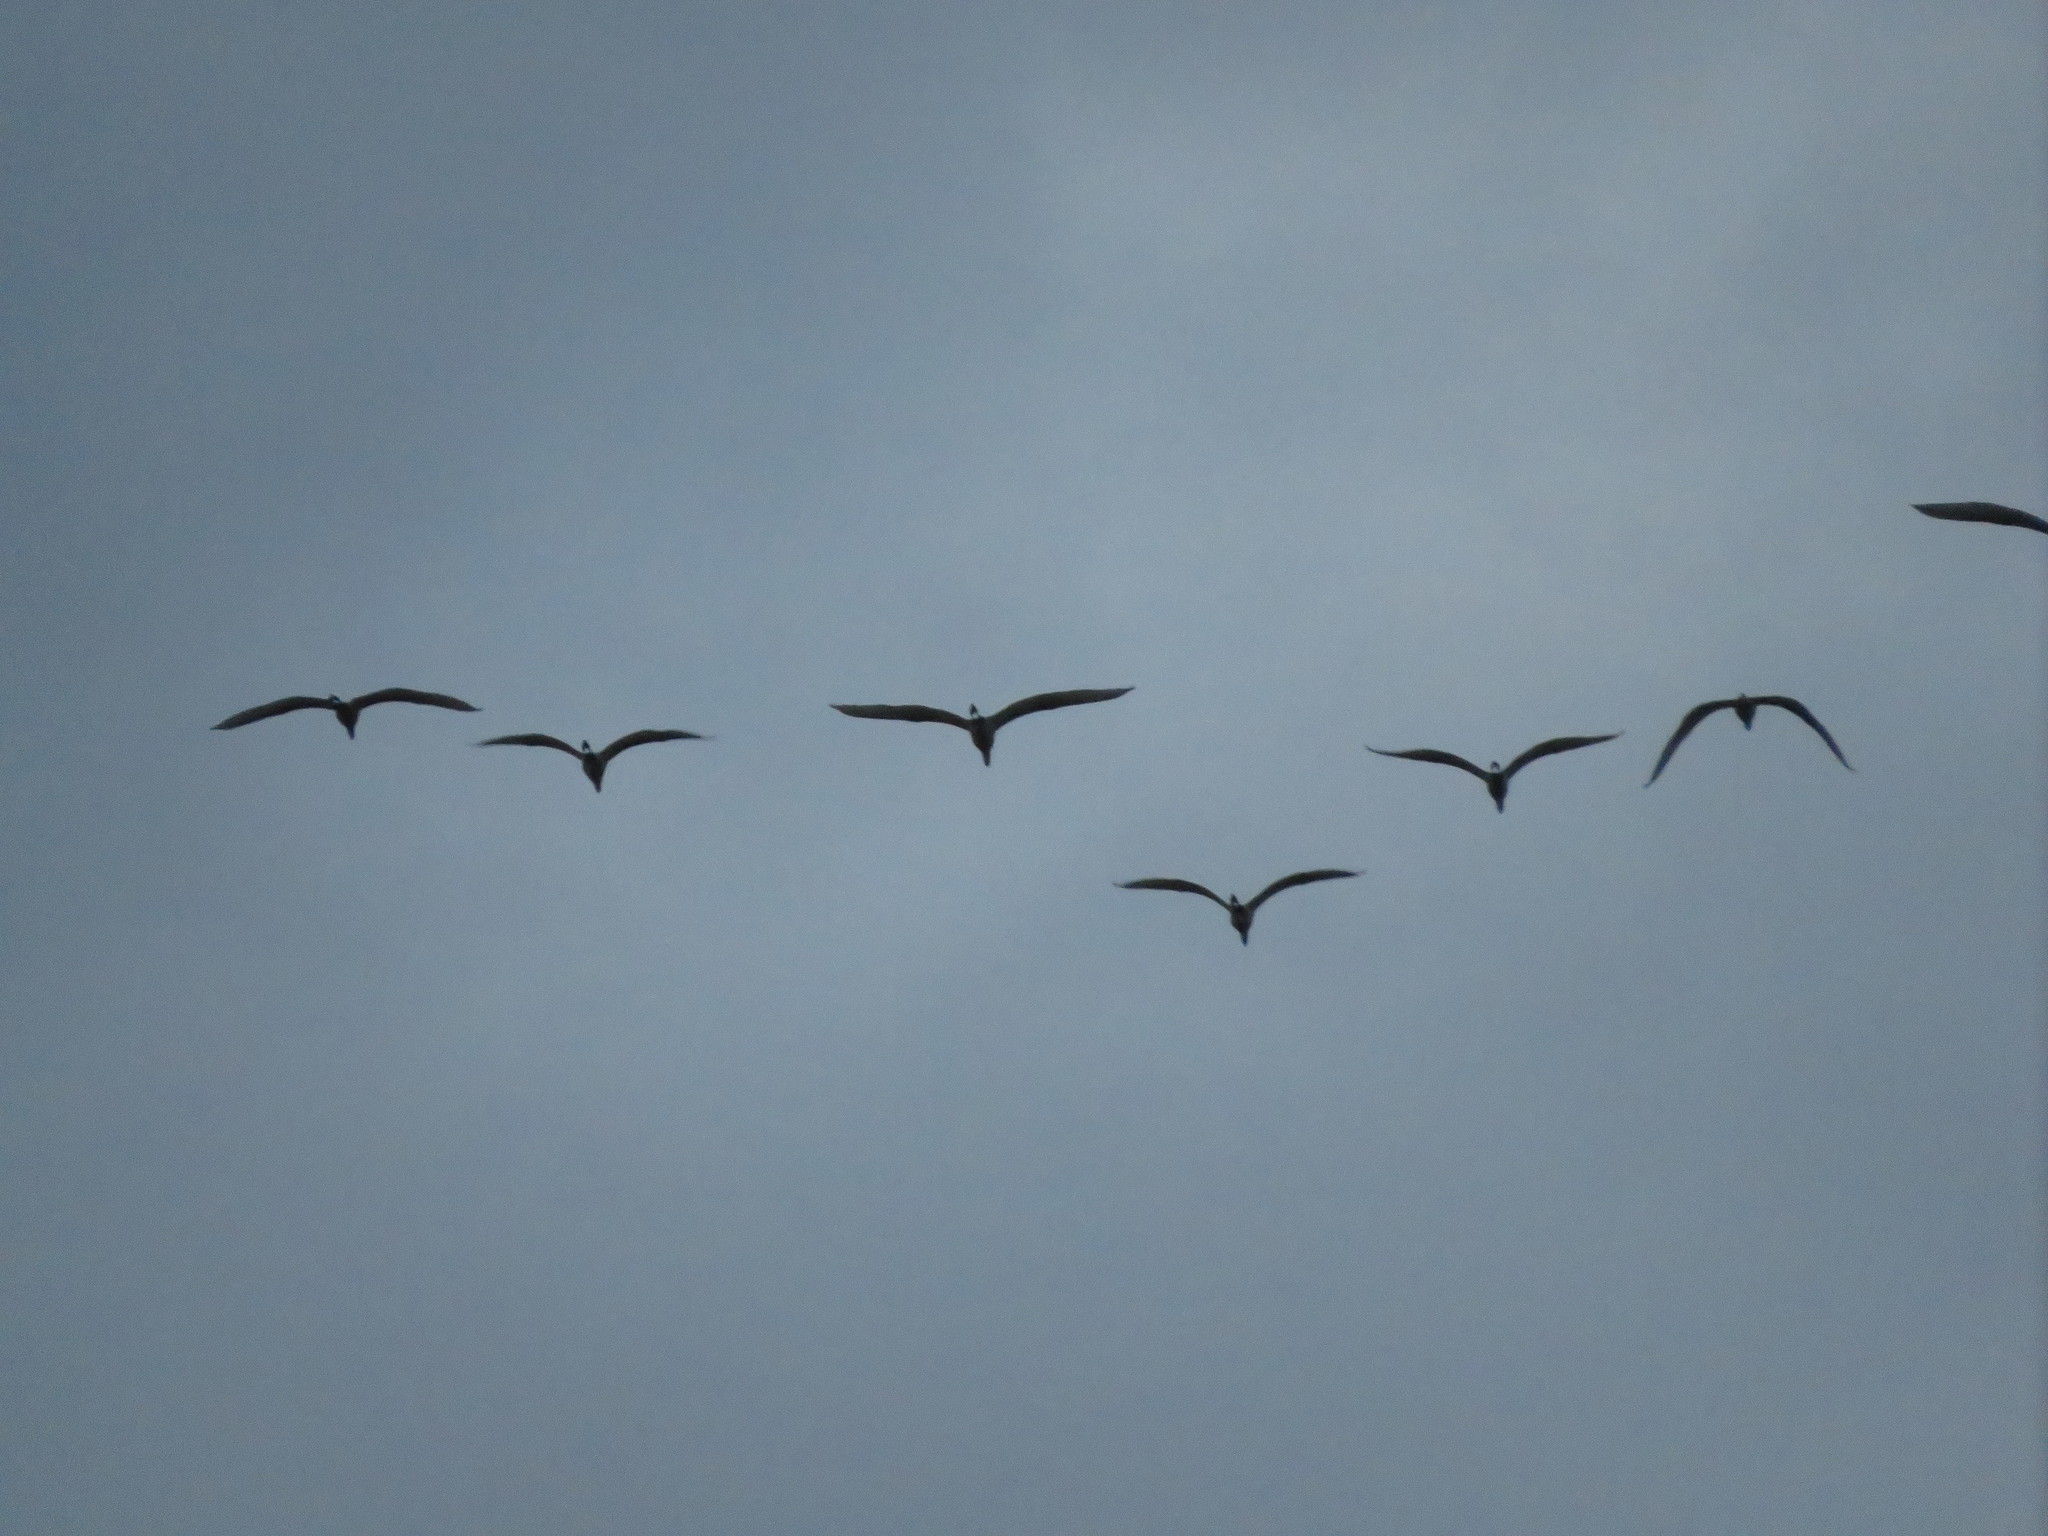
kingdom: Animalia
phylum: Chordata
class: Aves
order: Pelecaniformes
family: Ardeidae
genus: Ardea
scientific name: Ardea alba
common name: Great egret
